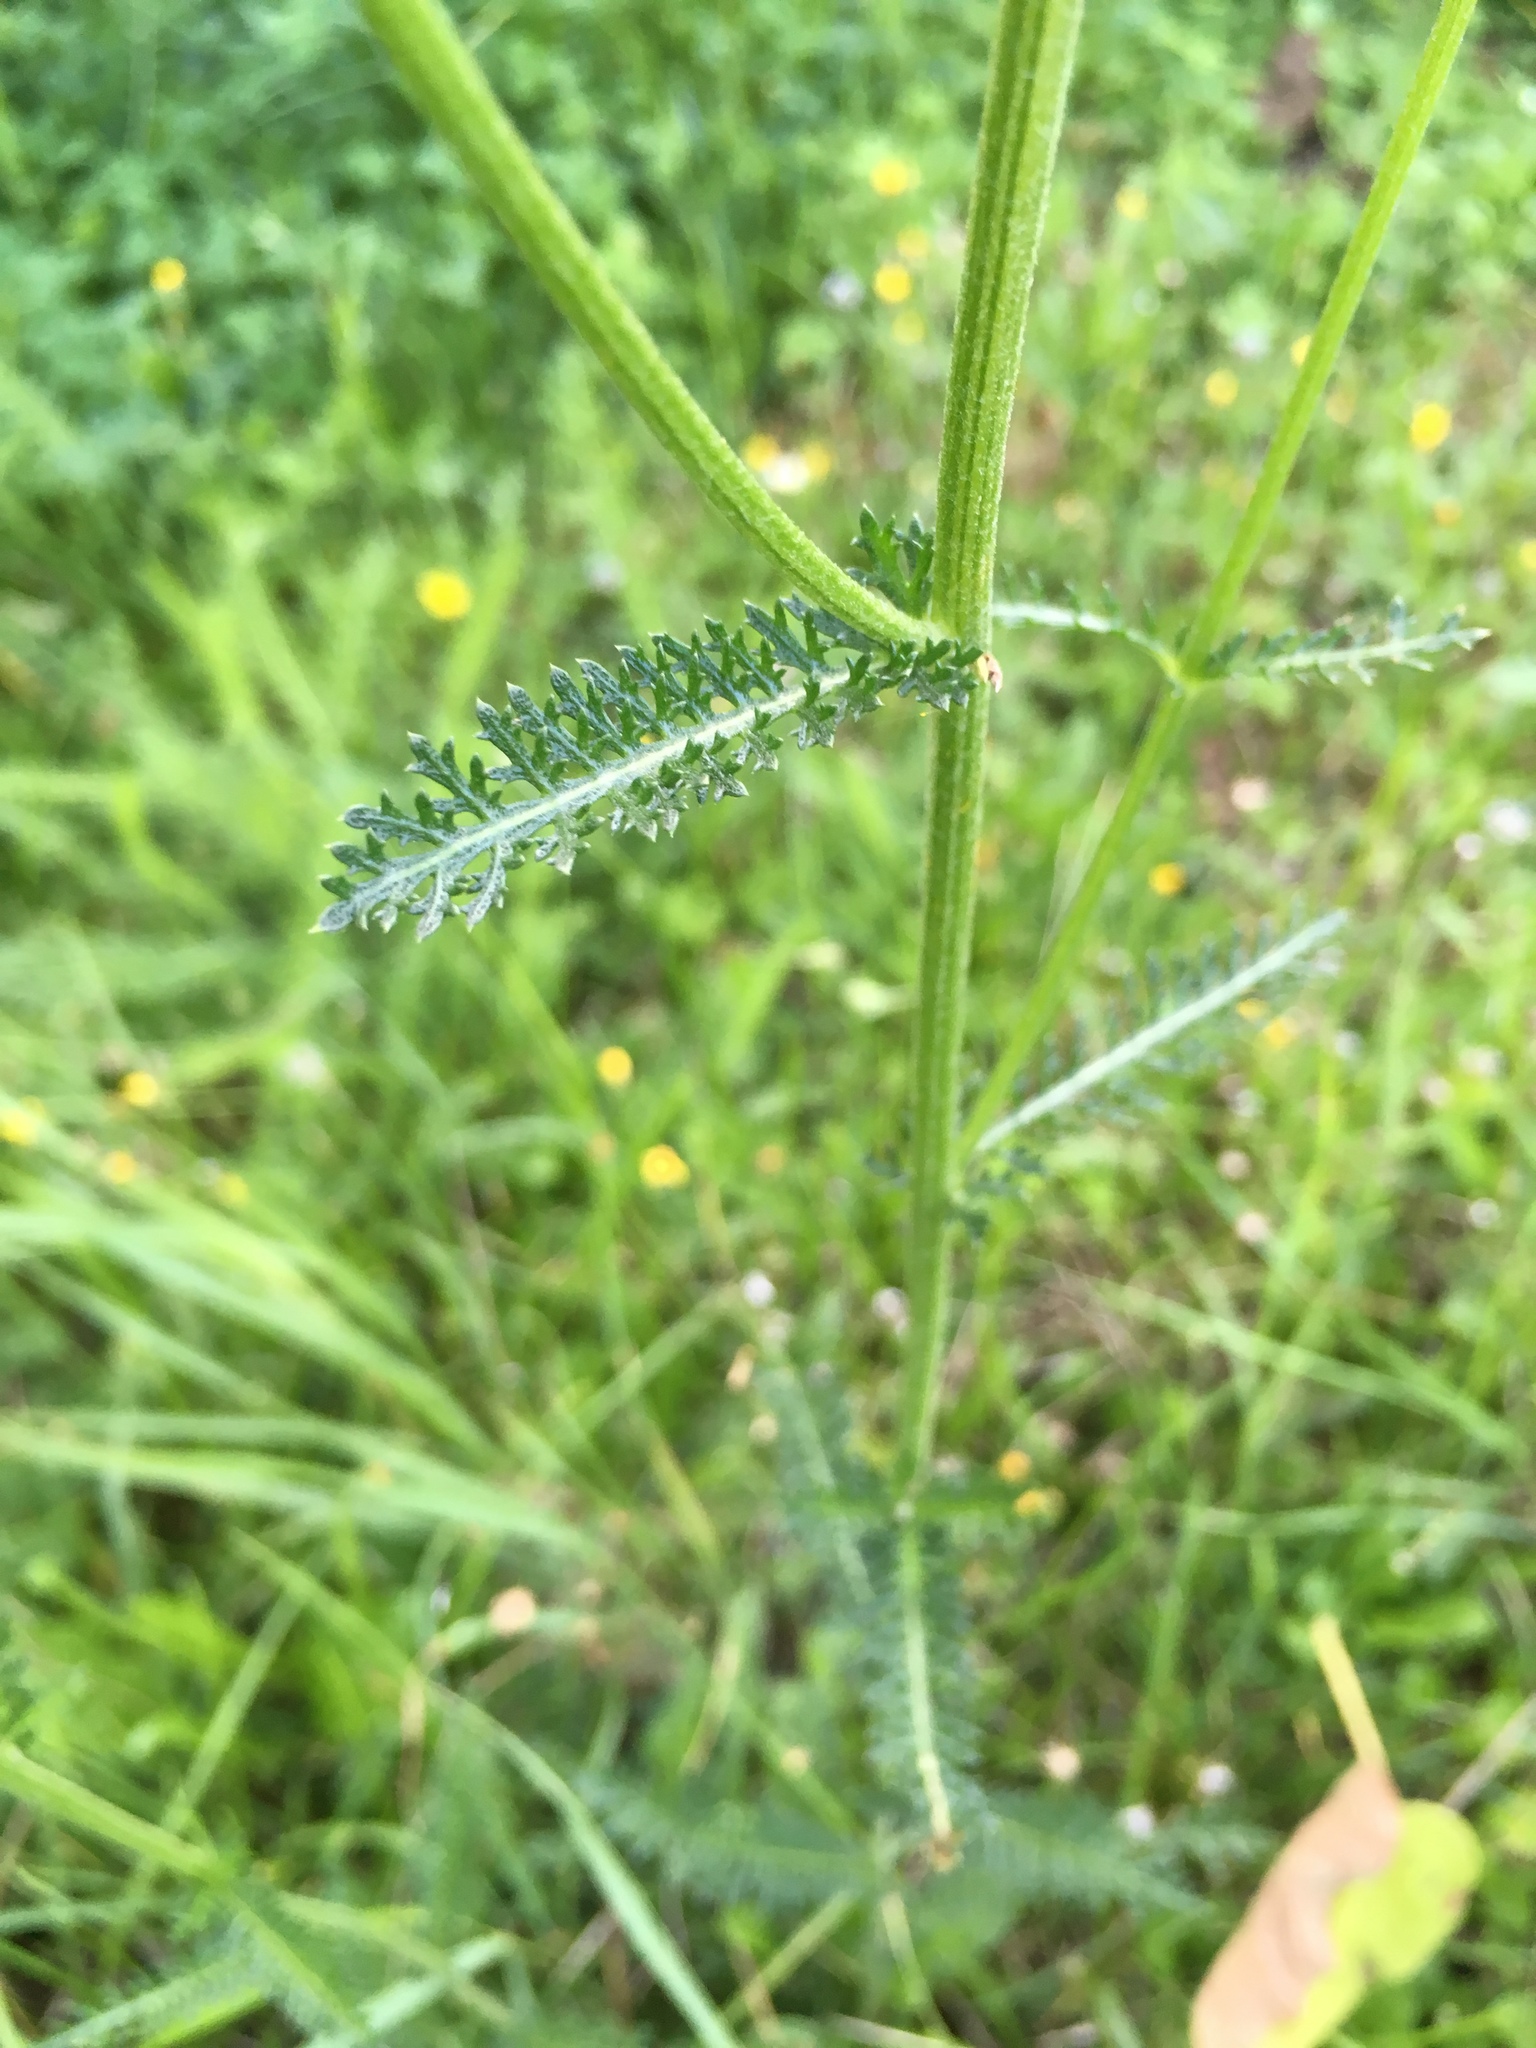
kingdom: Plantae
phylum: Tracheophyta
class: Magnoliopsida
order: Asterales
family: Asteraceae
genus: Achillea
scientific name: Achillea millefolium
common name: Yarrow
